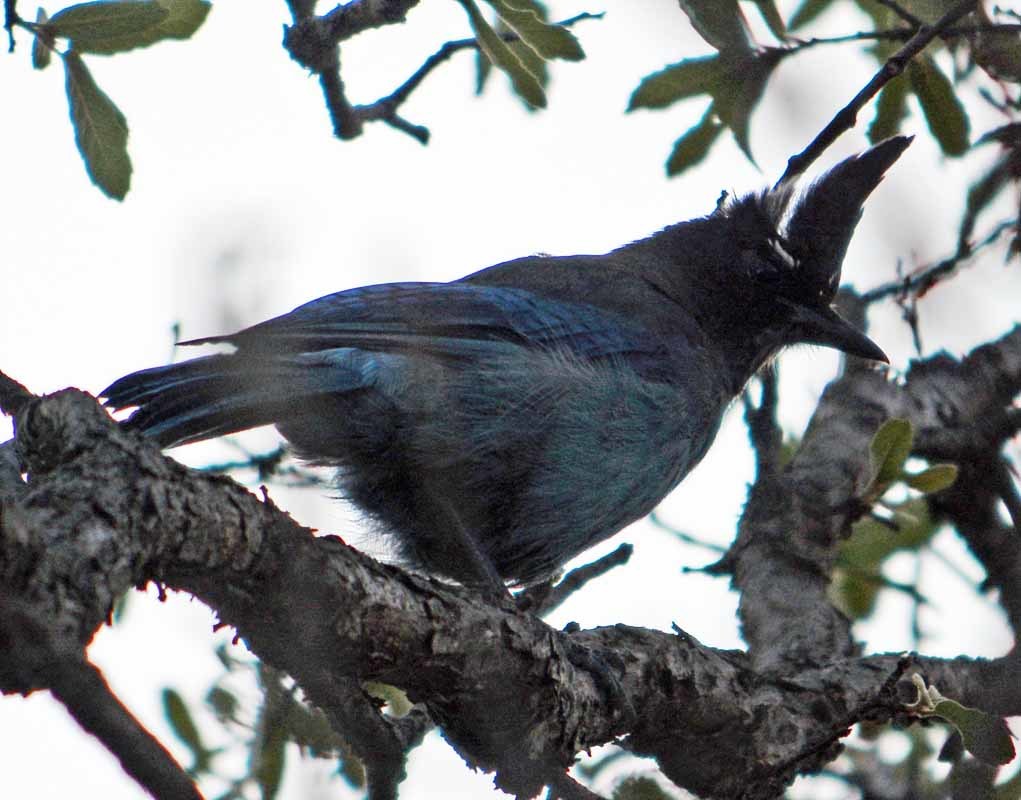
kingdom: Animalia
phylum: Chordata
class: Aves
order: Passeriformes
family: Corvidae
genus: Cyanocitta
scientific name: Cyanocitta stelleri
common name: Steller's jay
